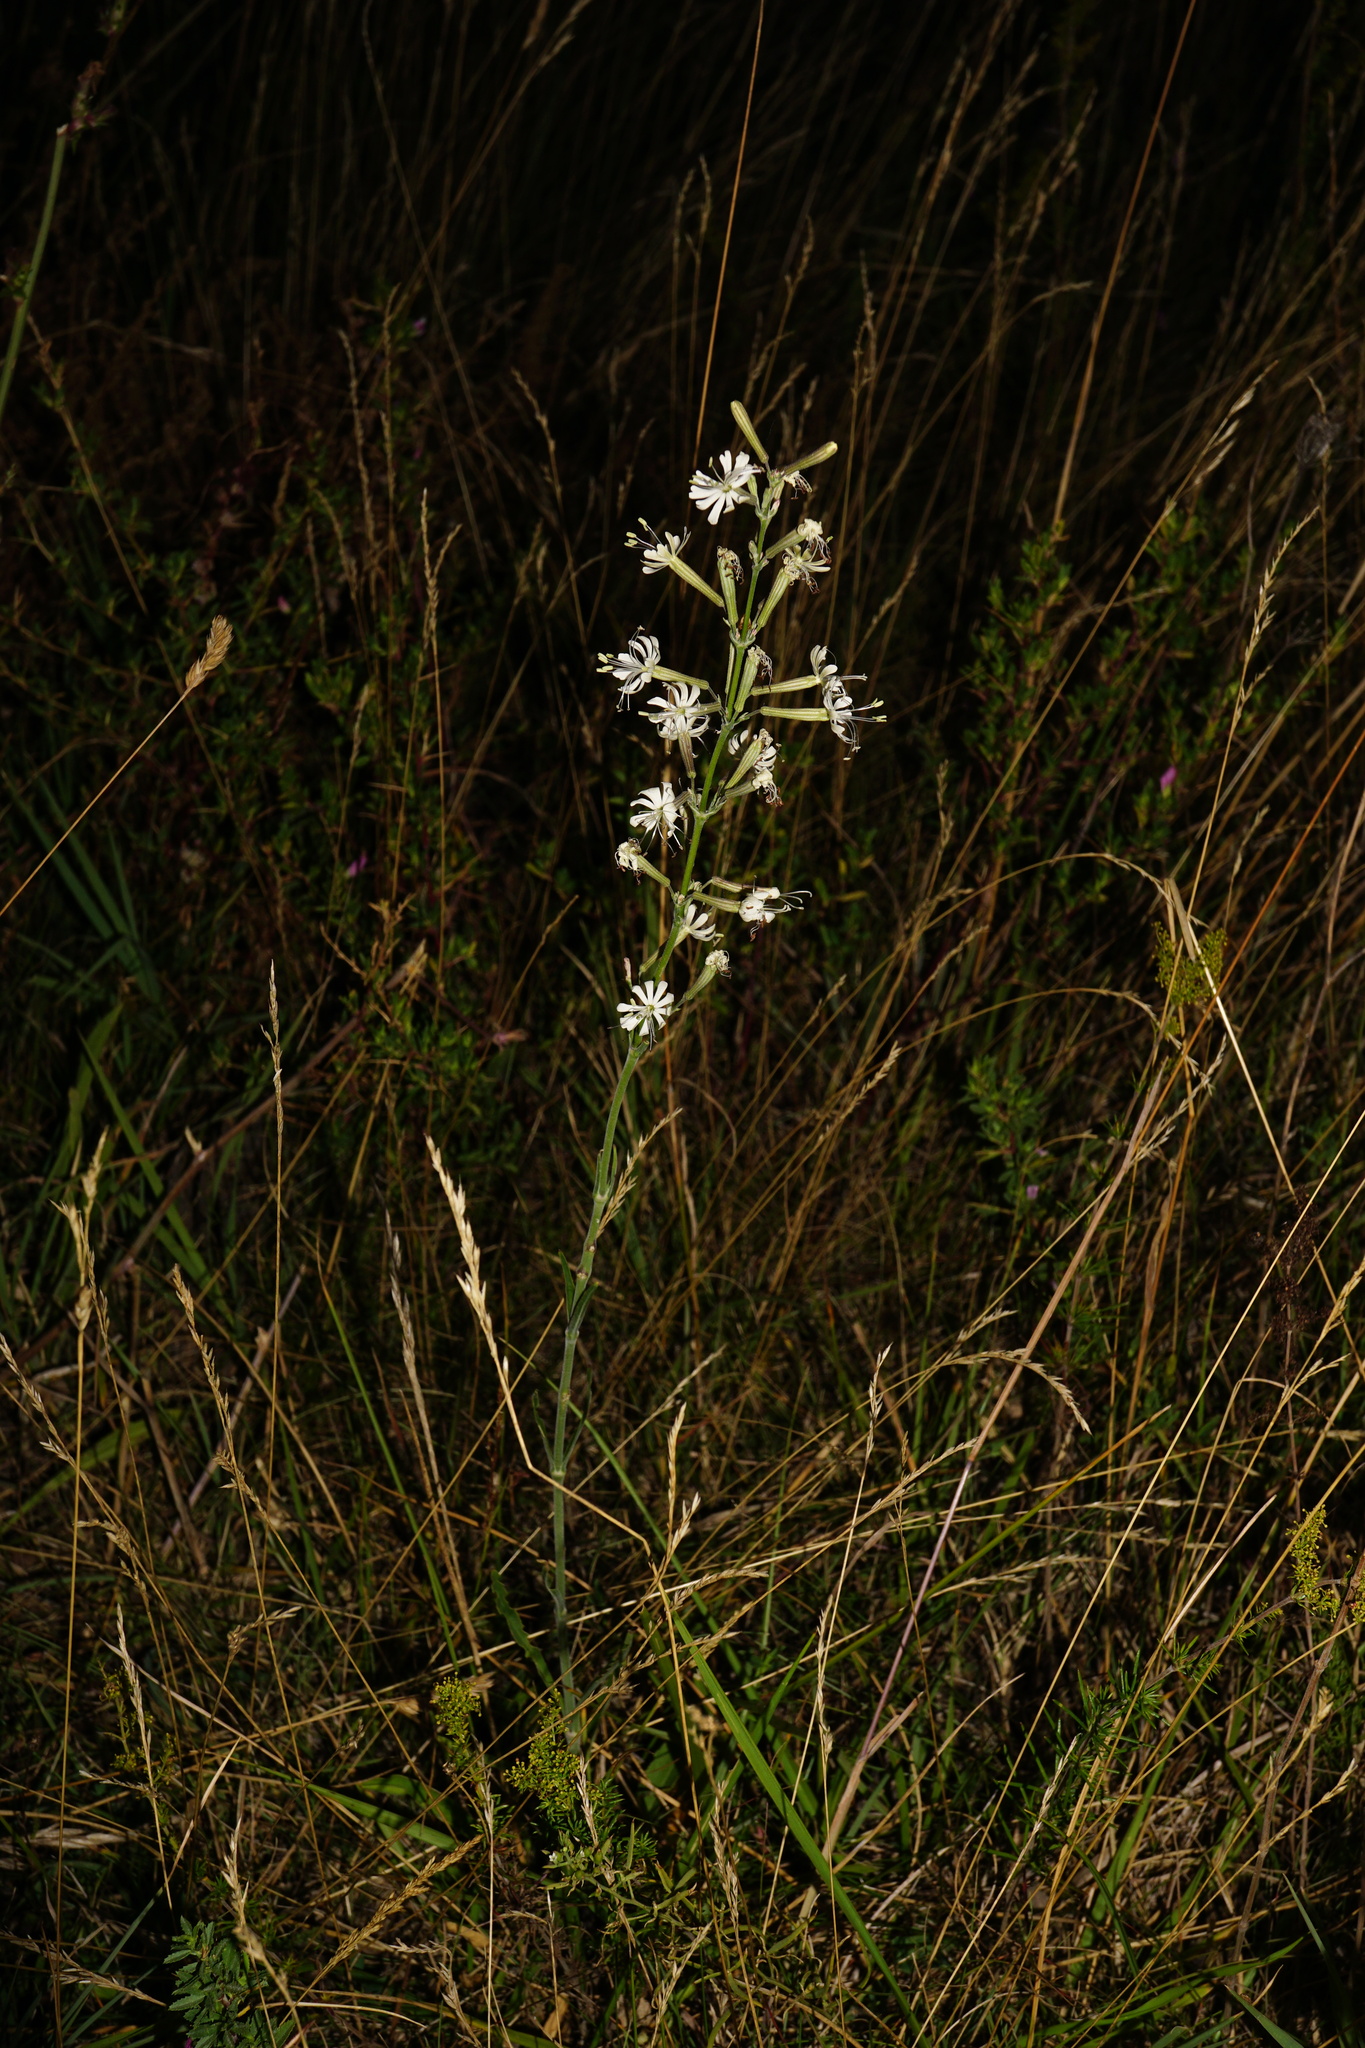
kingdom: Plantae
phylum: Tracheophyta
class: Magnoliopsida
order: Caryophyllales
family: Caryophyllaceae
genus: Silene
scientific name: Silene multiflora
